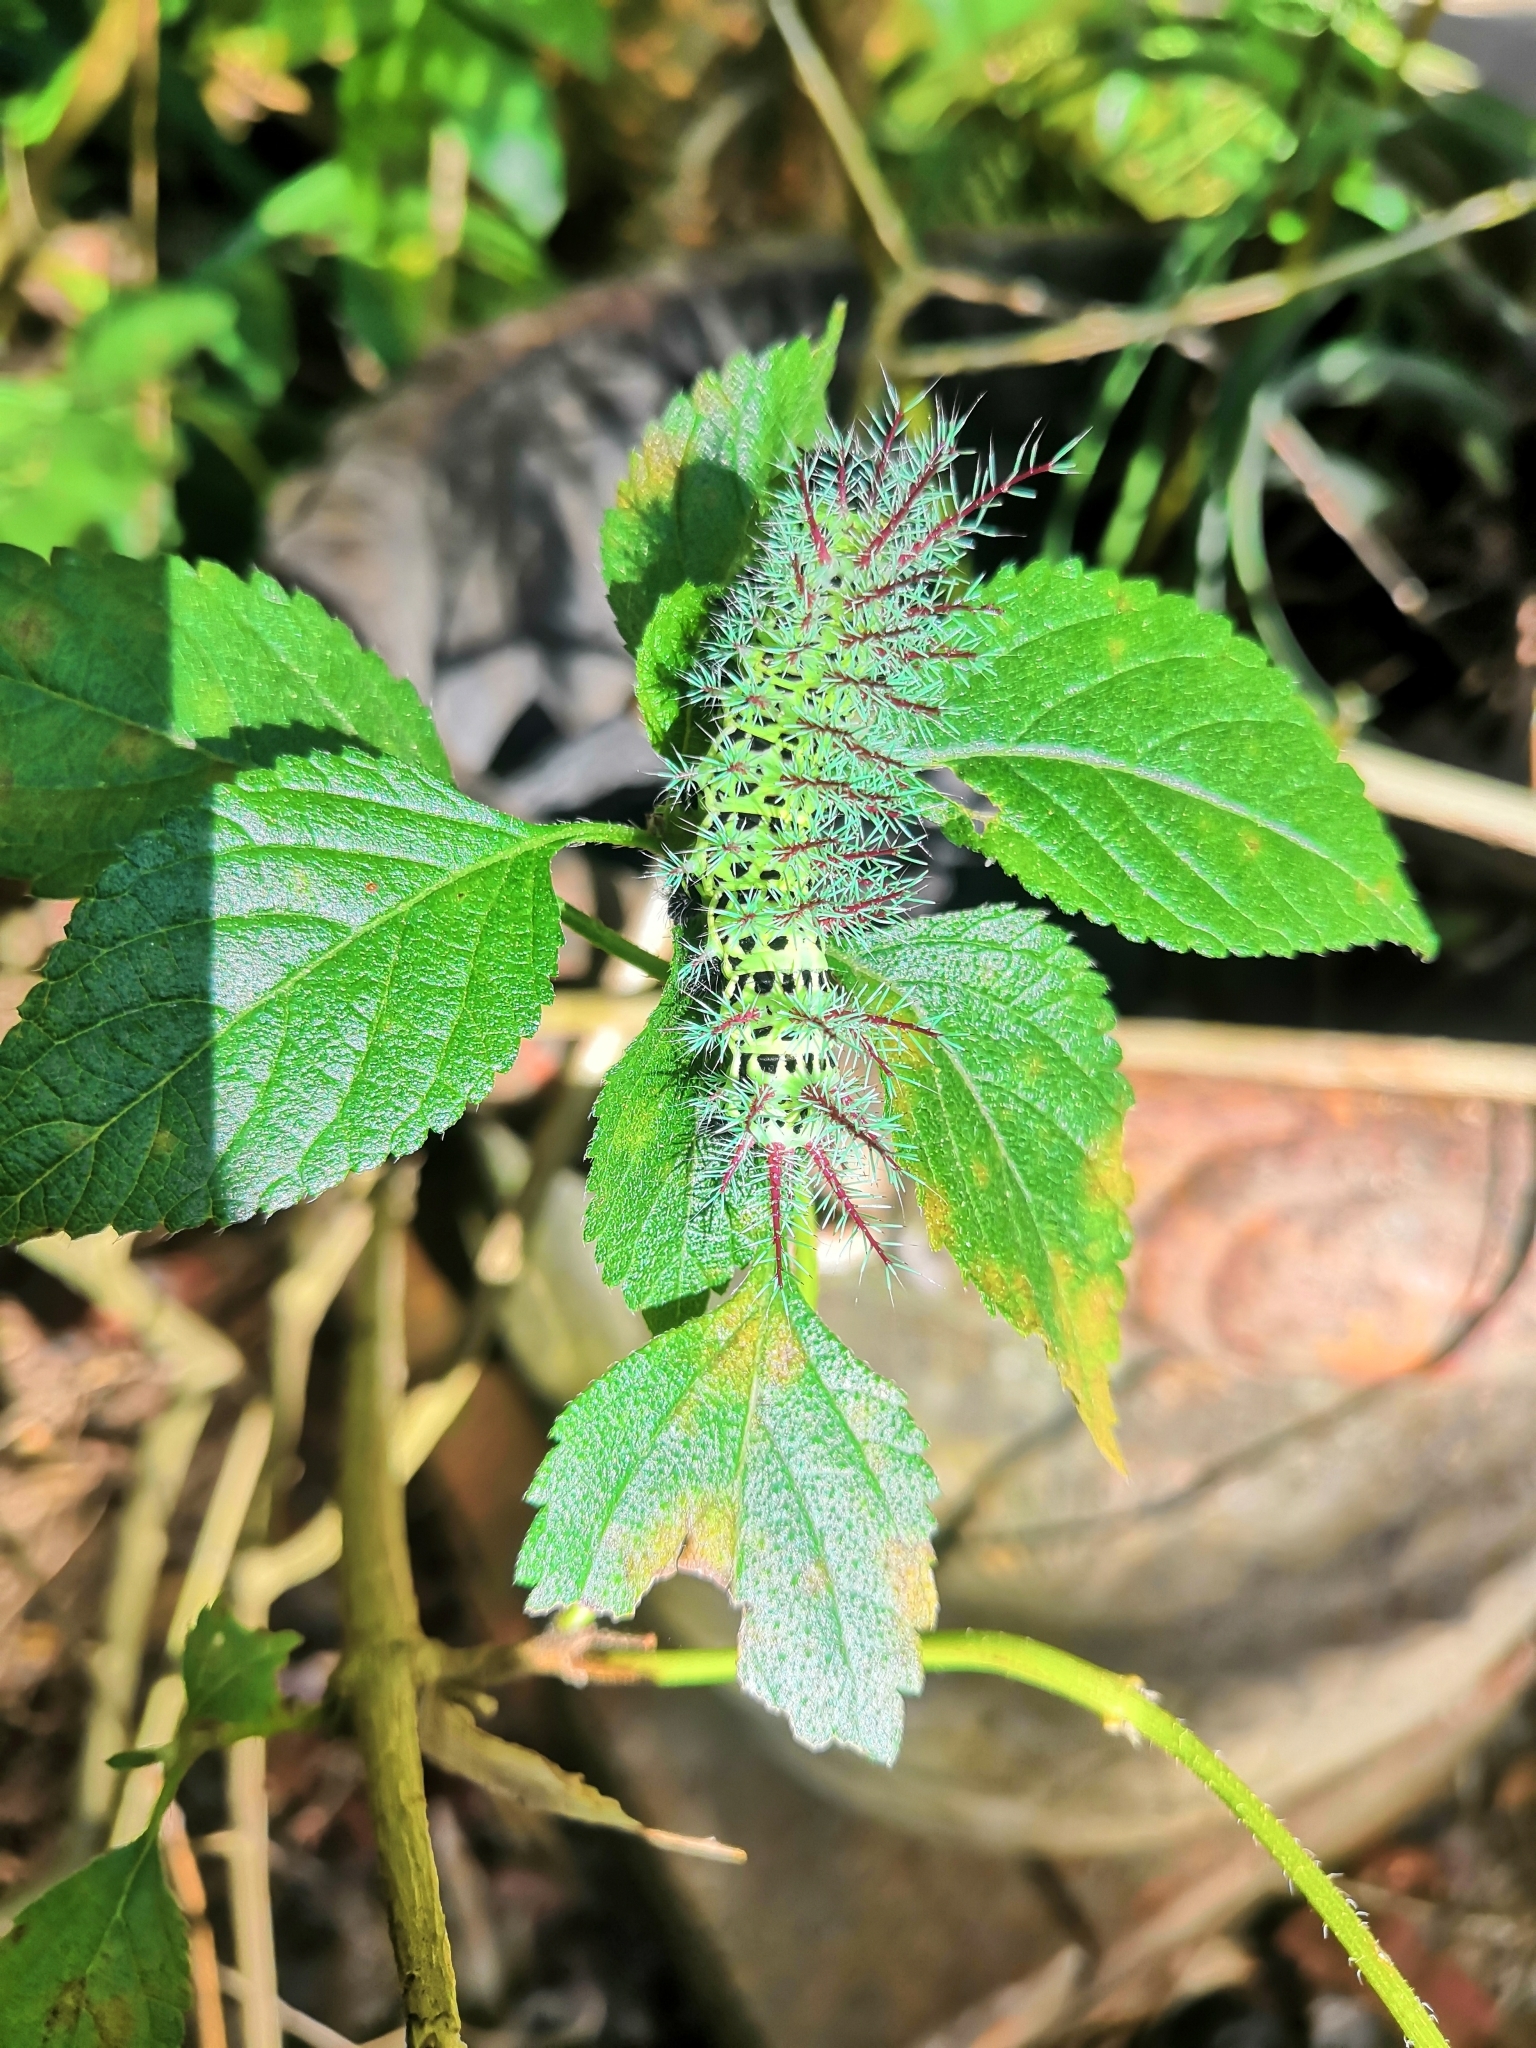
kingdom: Animalia
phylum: Arthropoda
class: Insecta
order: Lepidoptera
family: Saturniidae
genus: Automeris
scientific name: Automeris metzli
